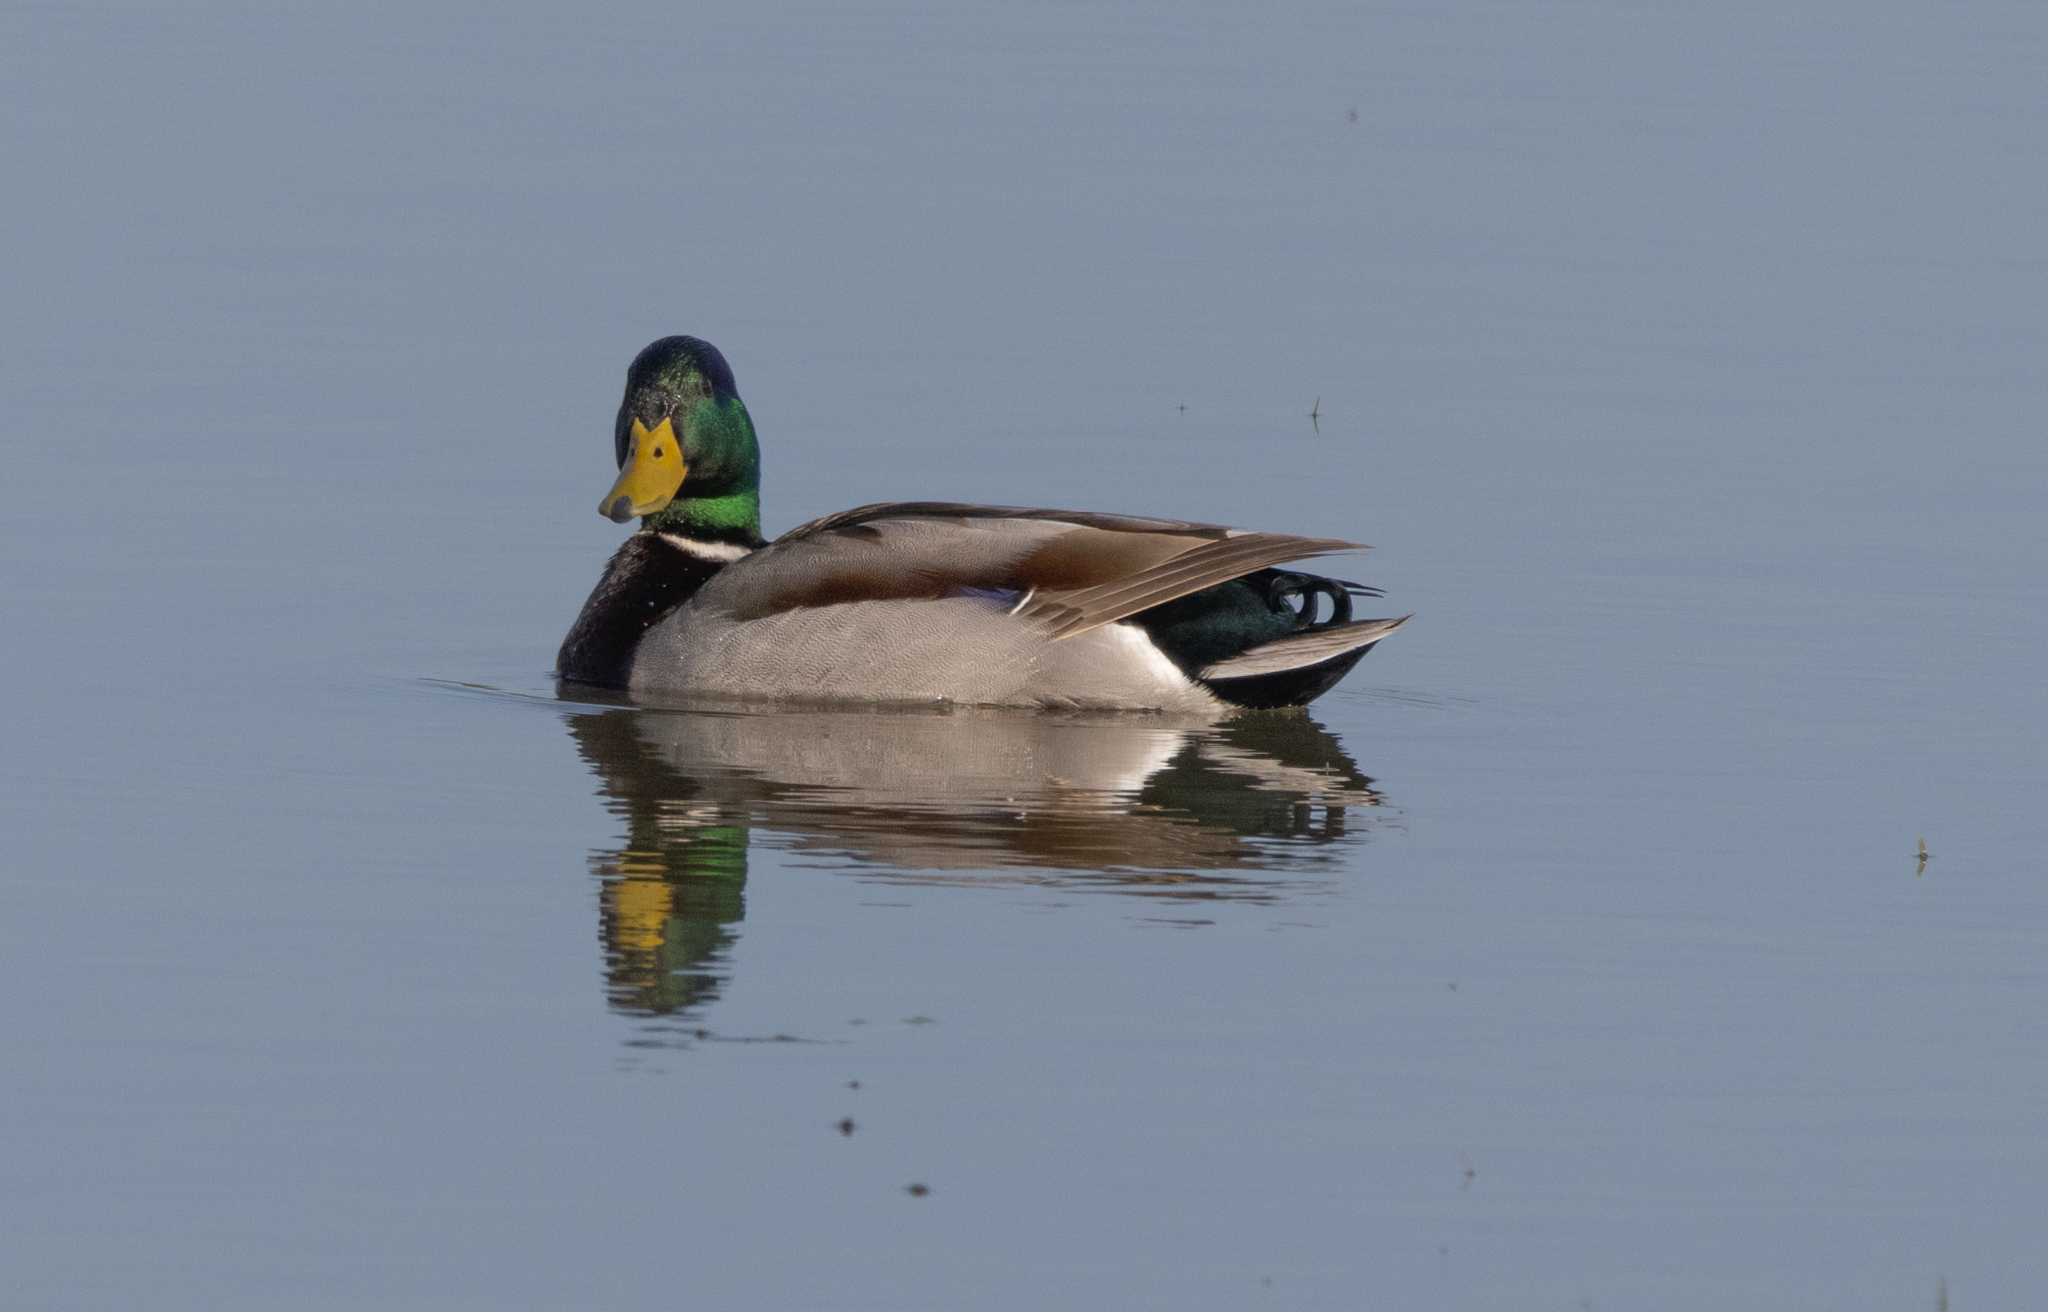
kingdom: Animalia
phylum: Chordata
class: Aves
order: Anseriformes
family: Anatidae
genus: Anas
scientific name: Anas platyrhynchos
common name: Mallard
